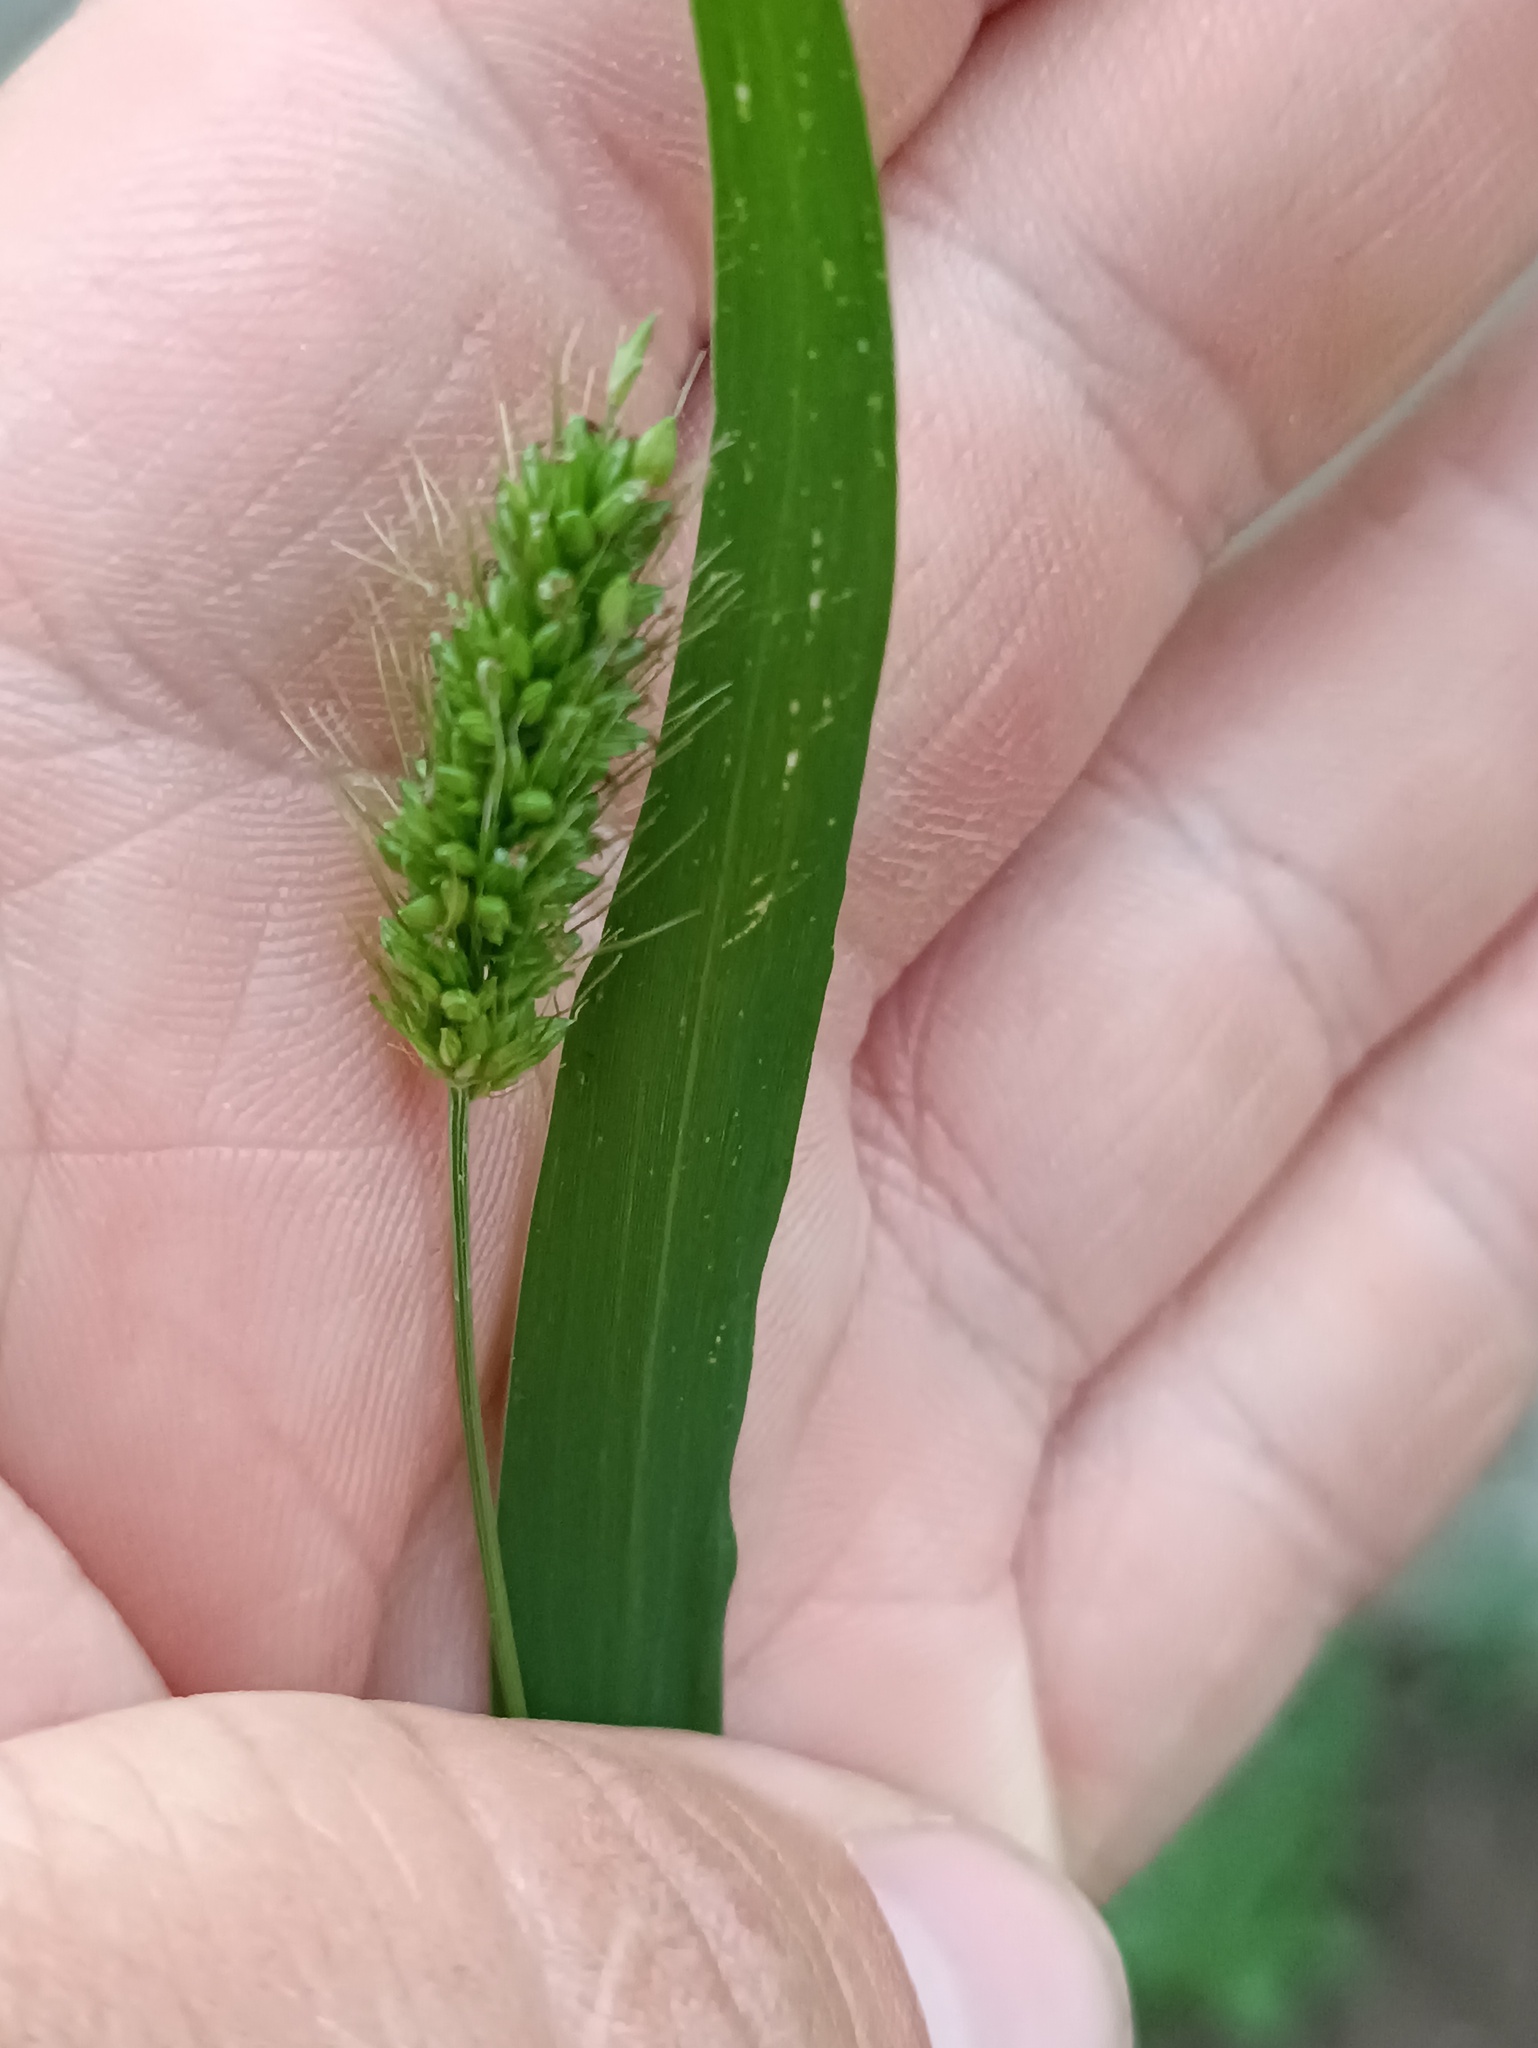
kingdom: Plantae
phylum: Tracheophyta
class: Liliopsida
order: Poales
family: Poaceae
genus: Setaria
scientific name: Setaria viridis
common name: Green bristlegrass
